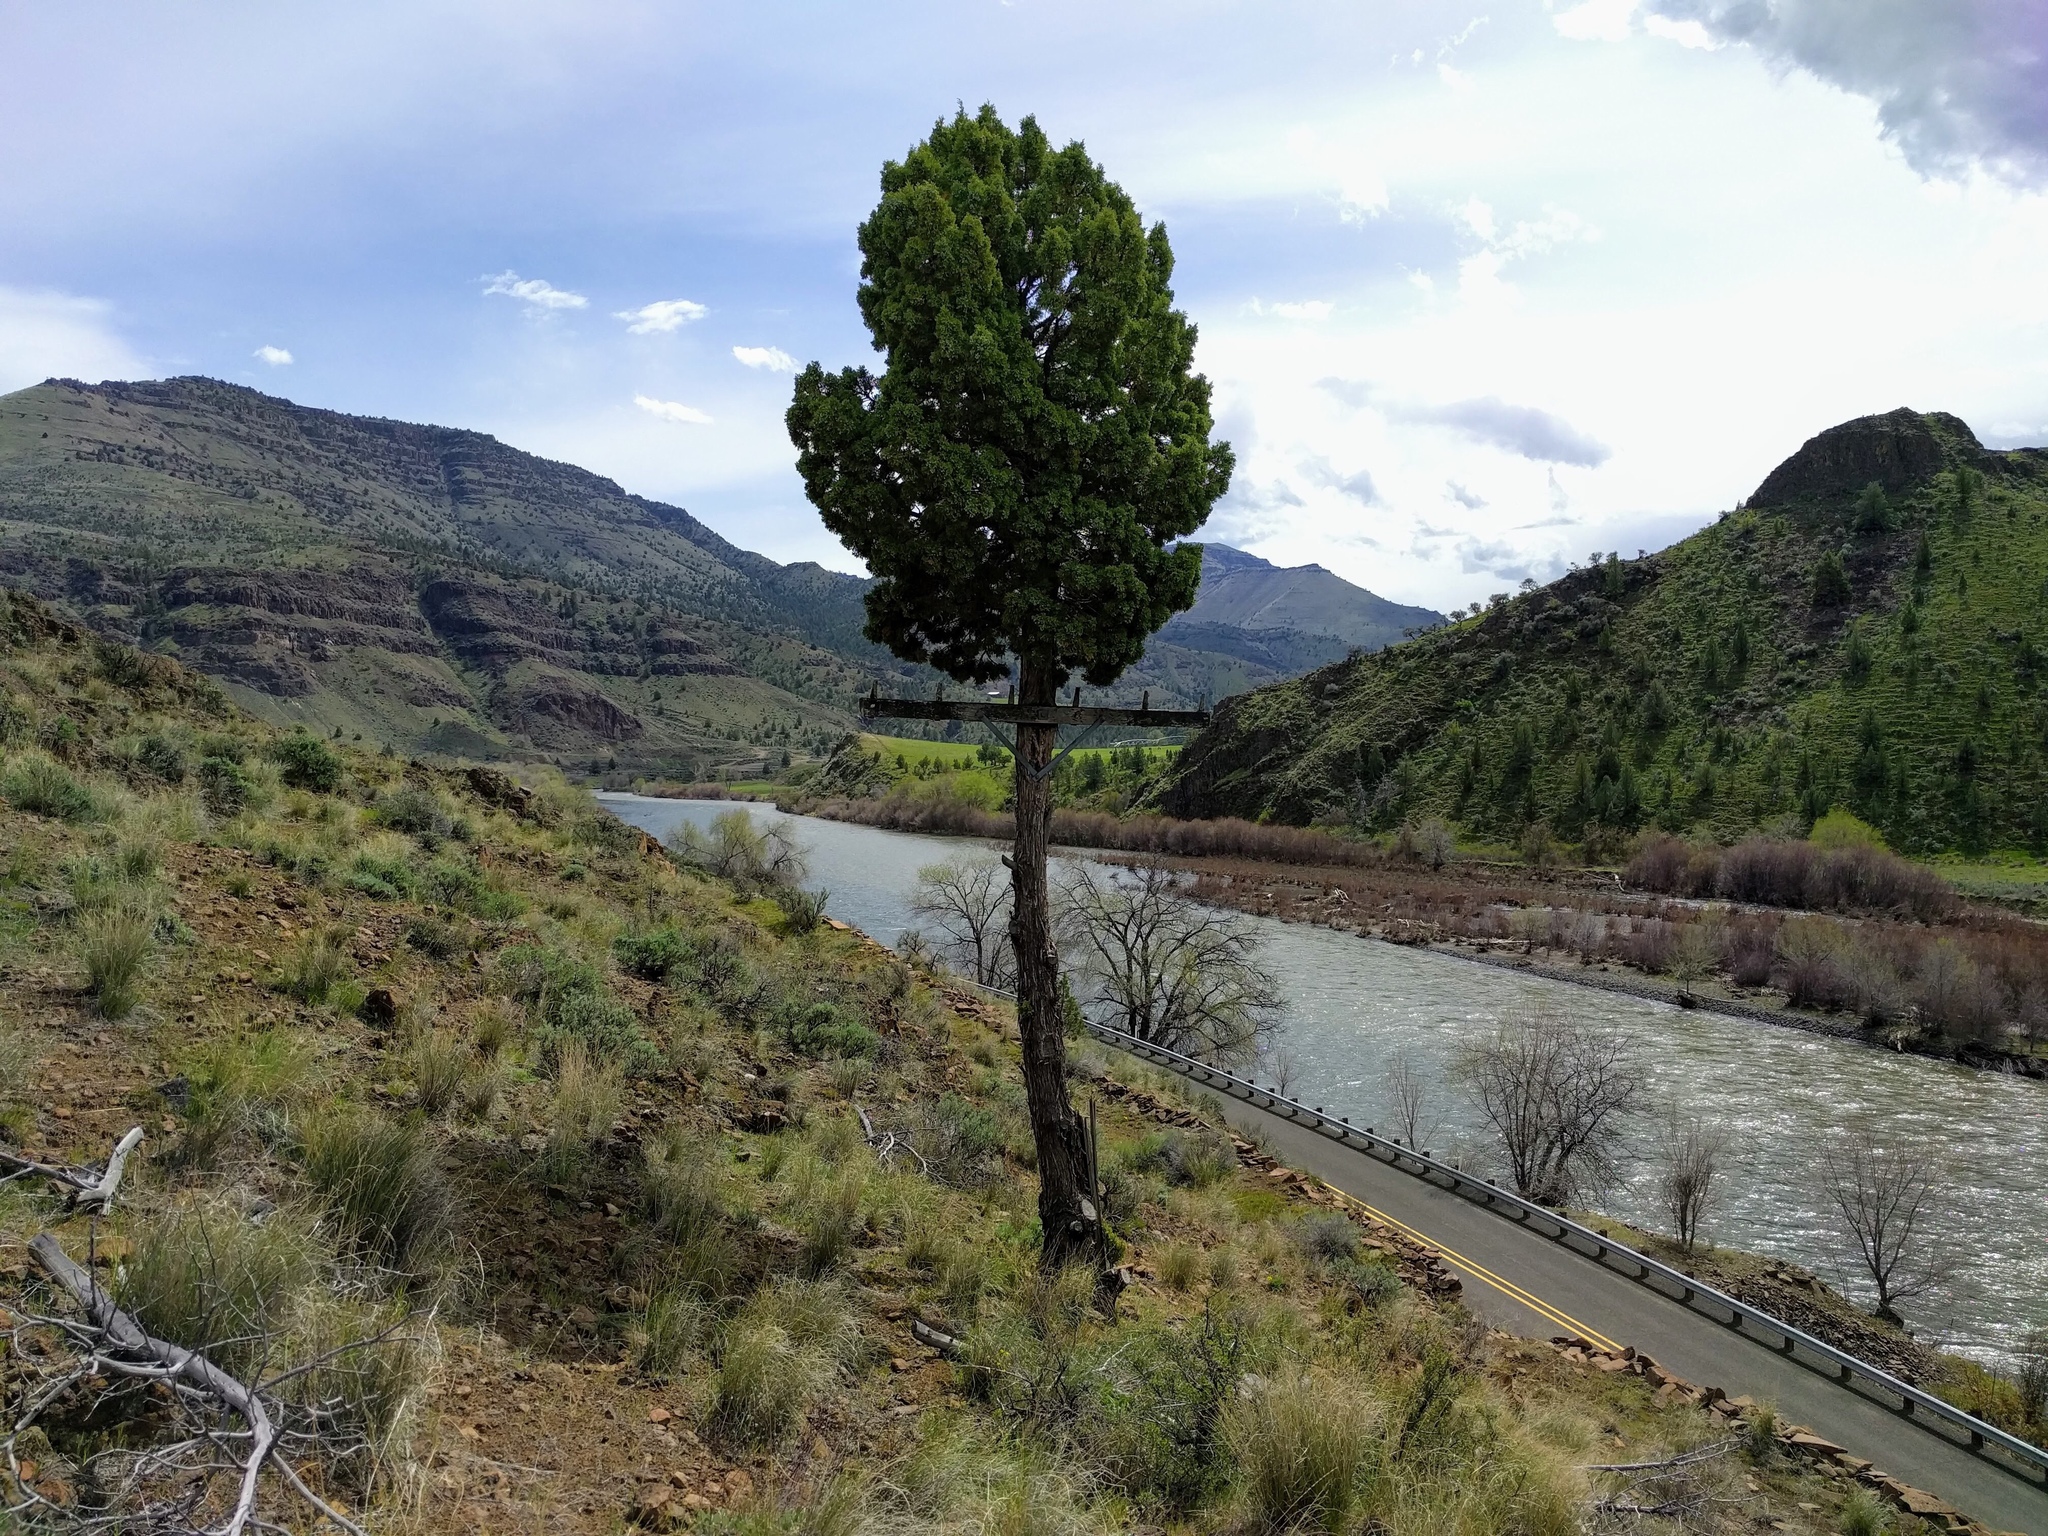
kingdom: Plantae
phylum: Tracheophyta
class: Pinopsida
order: Pinales
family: Pinaceae
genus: Pinus
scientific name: Pinus ponderosa
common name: Western yellow-pine
